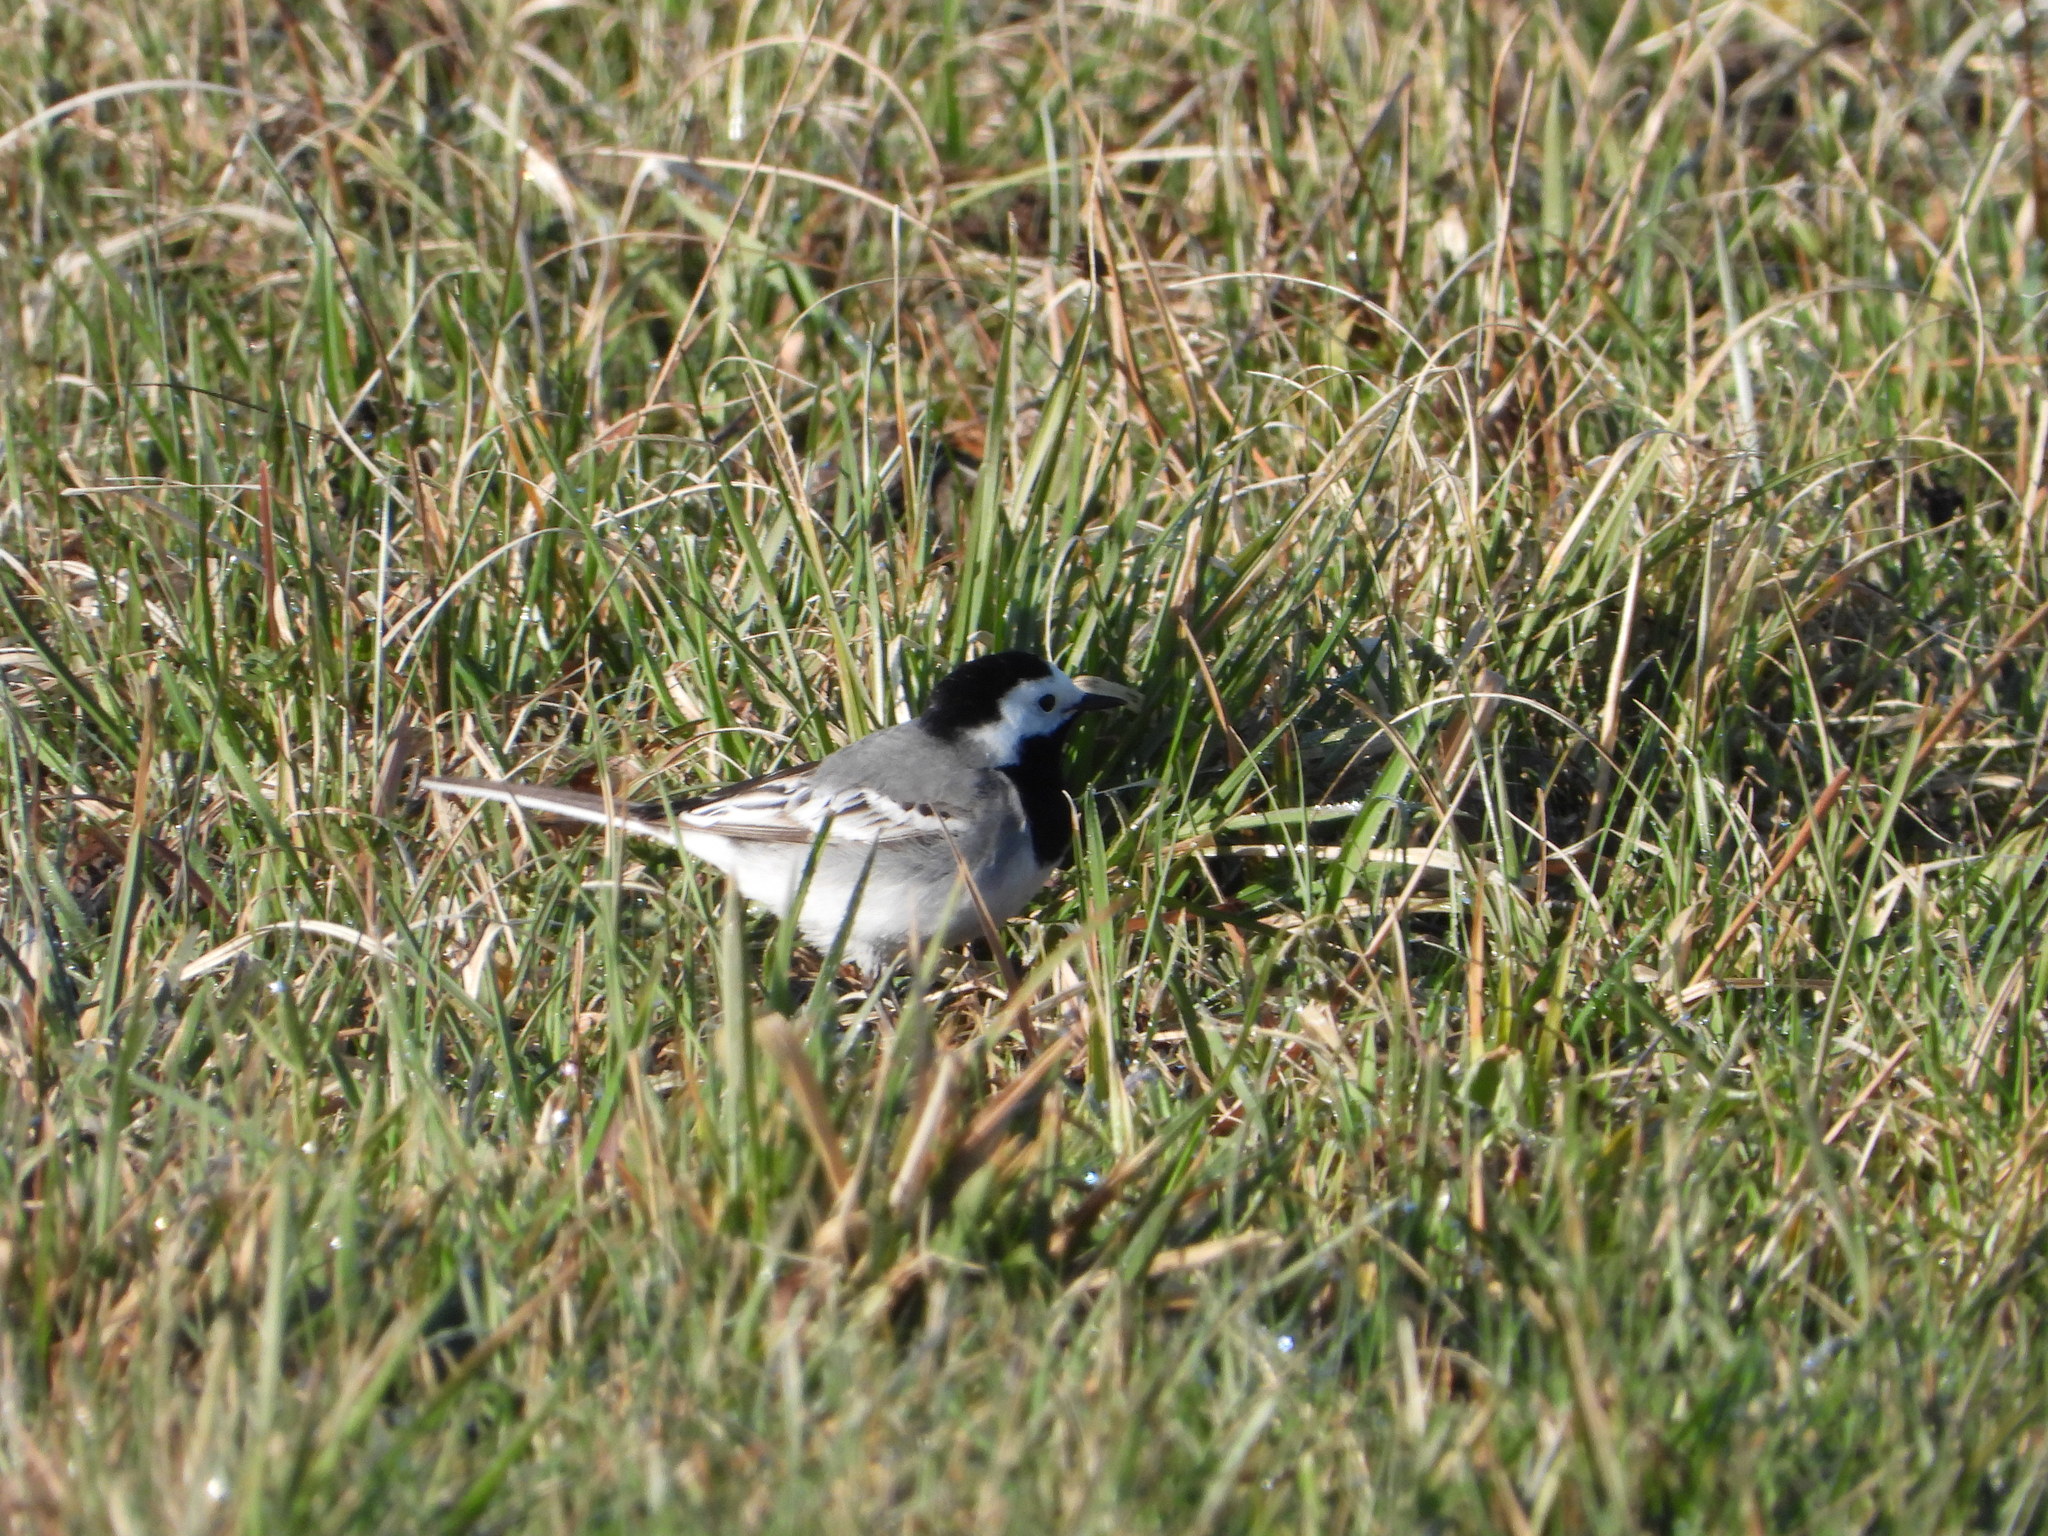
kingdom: Animalia
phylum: Chordata
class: Aves
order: Passeriformes
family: Motacillidae
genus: Motacilla
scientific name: Motacilla alba
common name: White wagtail
